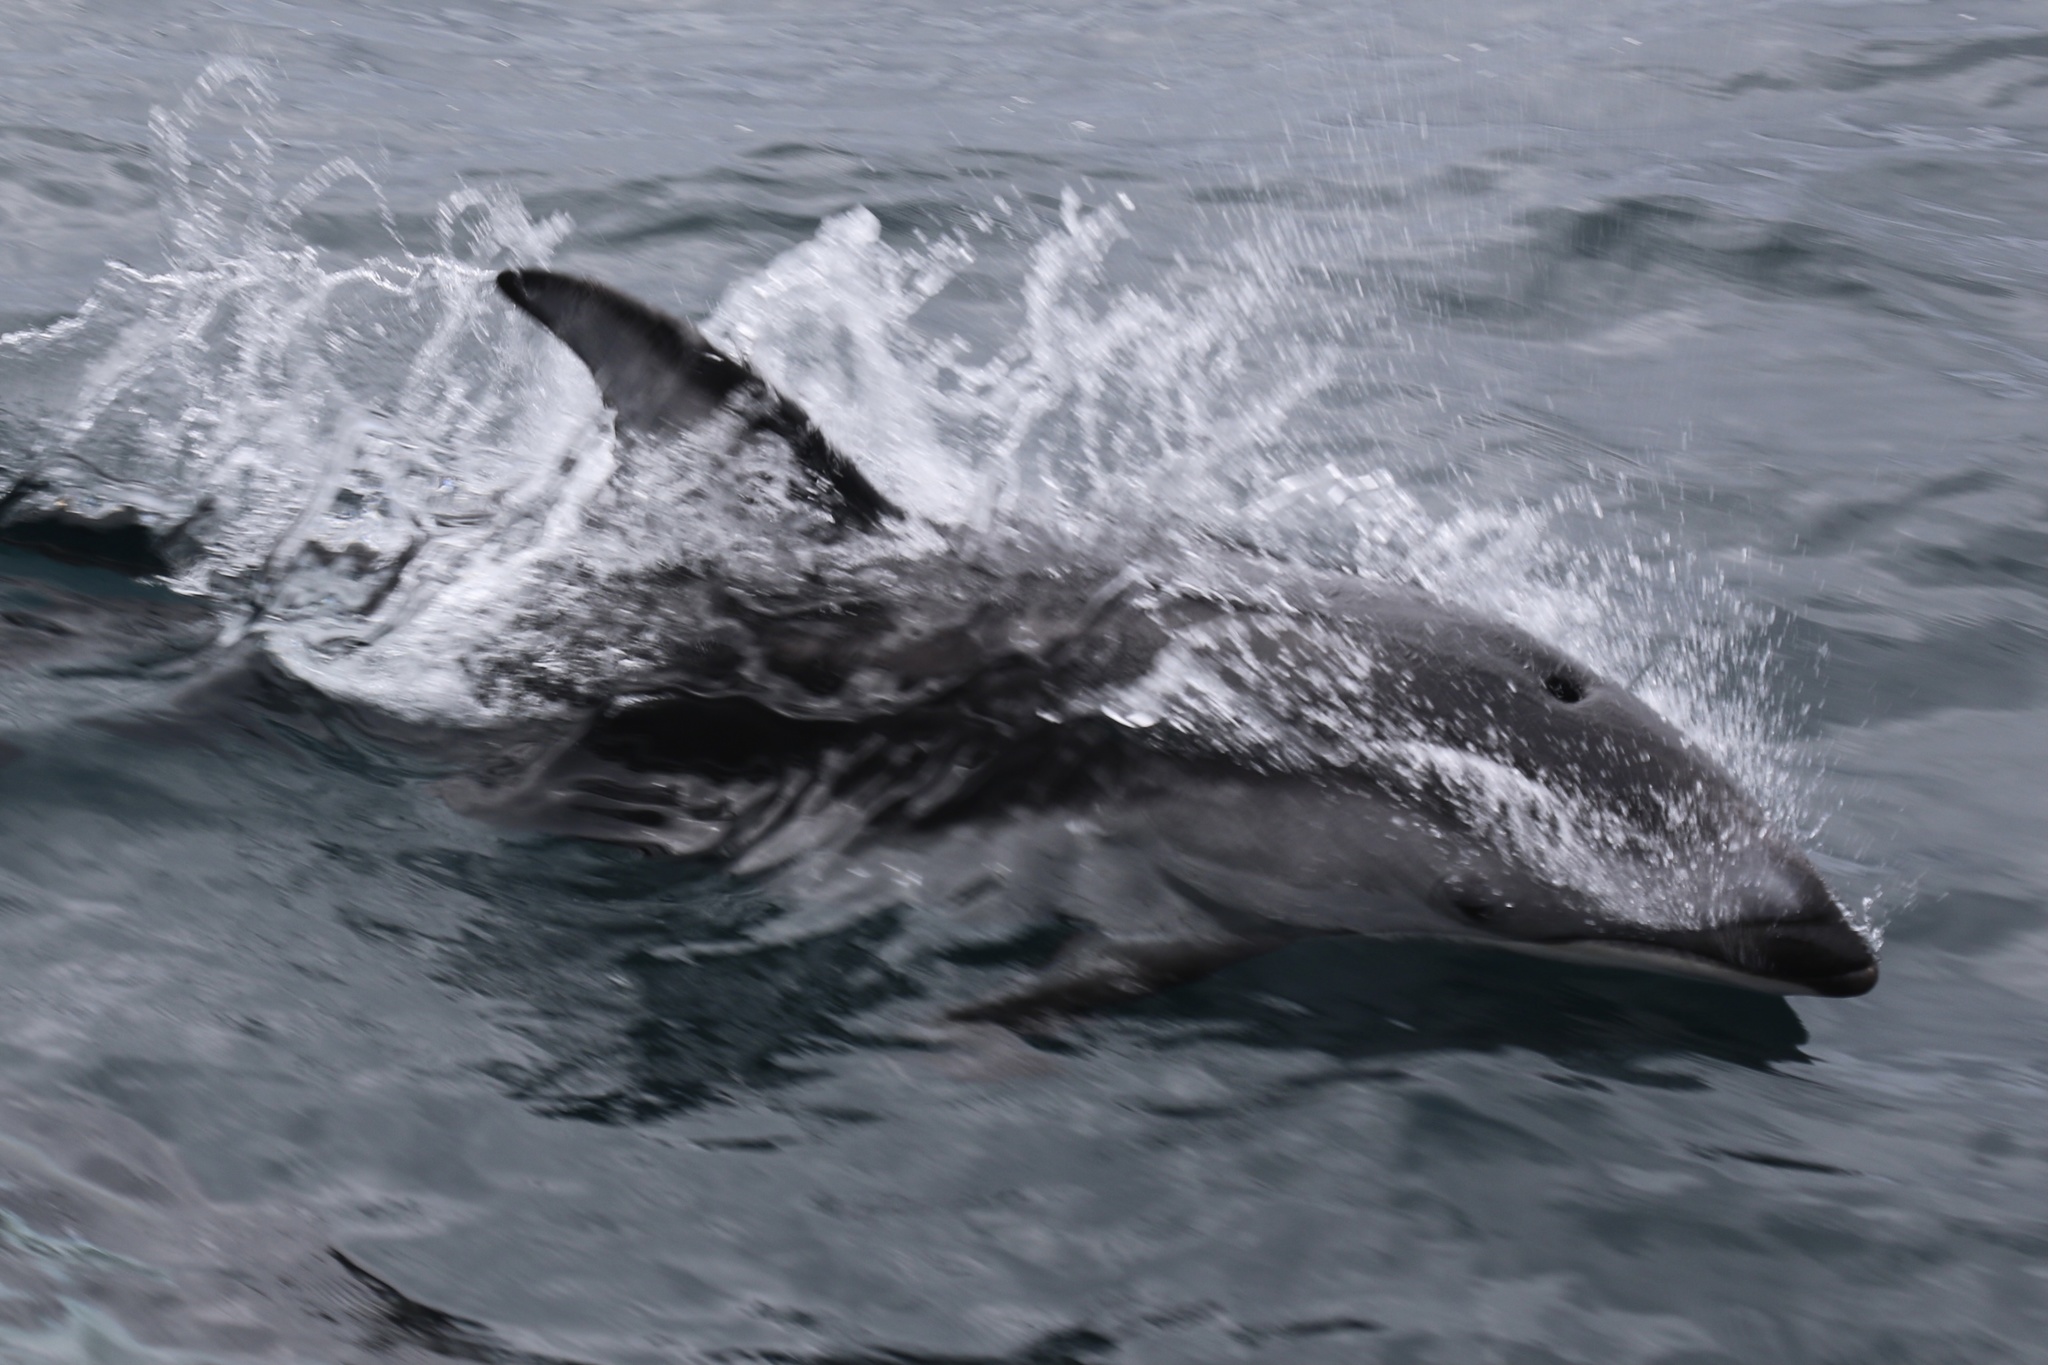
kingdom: Animalia
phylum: Chordata
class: Mammalia
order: Cetacea
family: Delphinidae
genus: Lagenorhynchus
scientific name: Lagenorhynchus obliquidens
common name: Pacific white-sided dolphin
